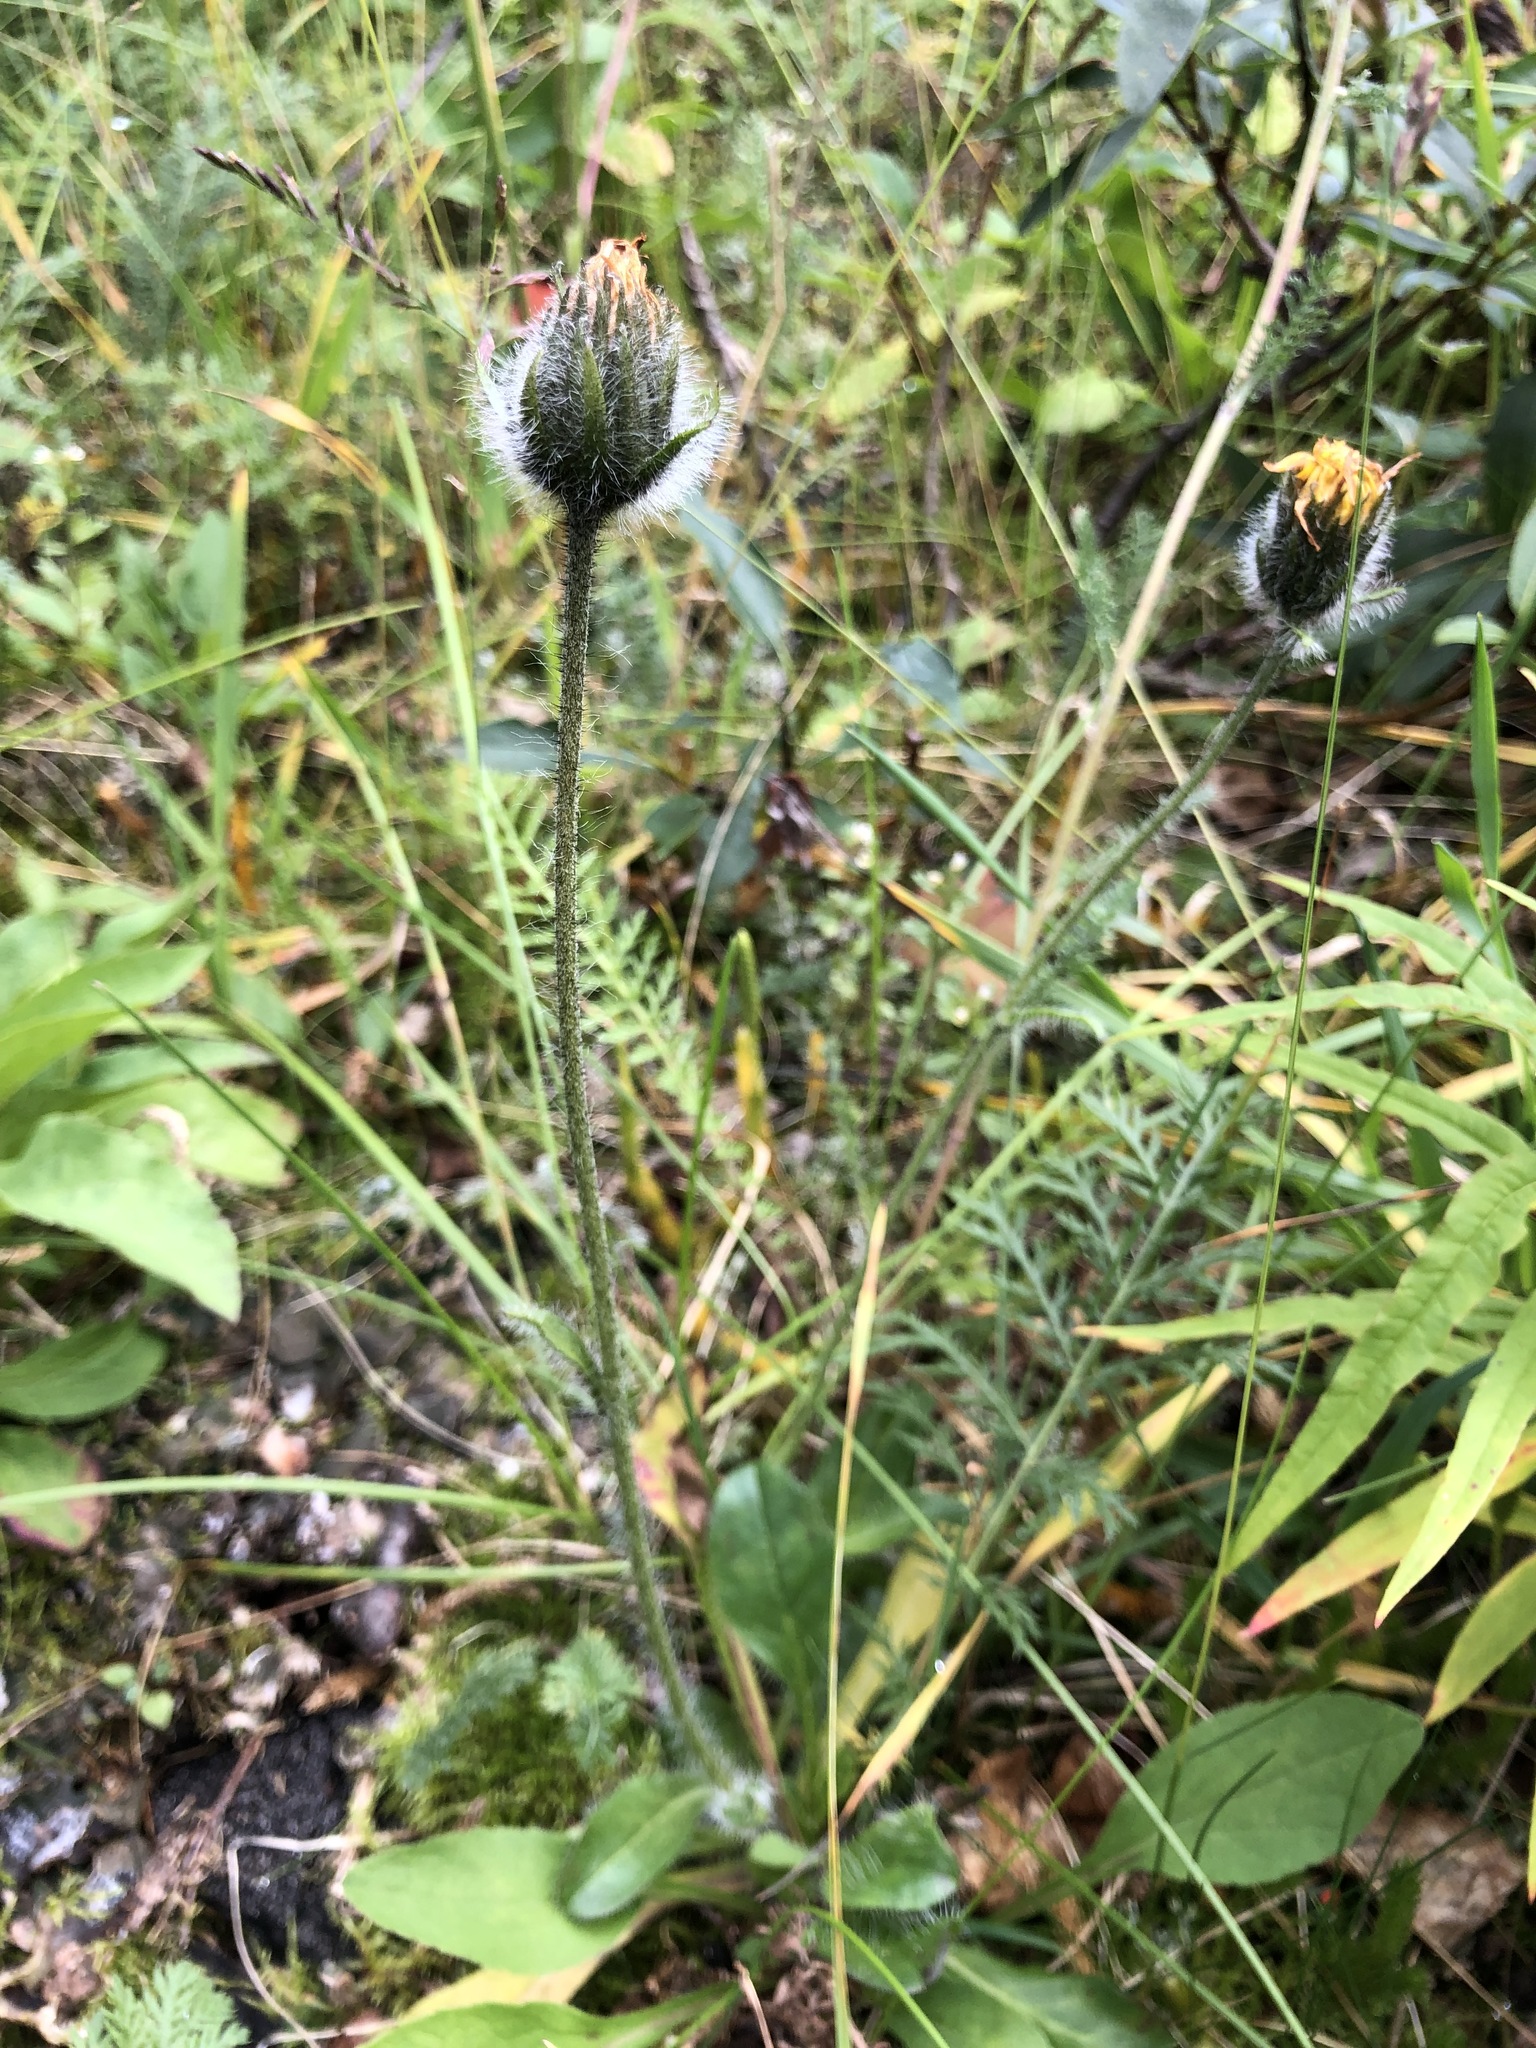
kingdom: Plantae
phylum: Tracheophyta
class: Magnoliopsida
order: Asterales
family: Asteraceae
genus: Hieracium
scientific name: Hieracium alpinum
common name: Alpine hawkweed
